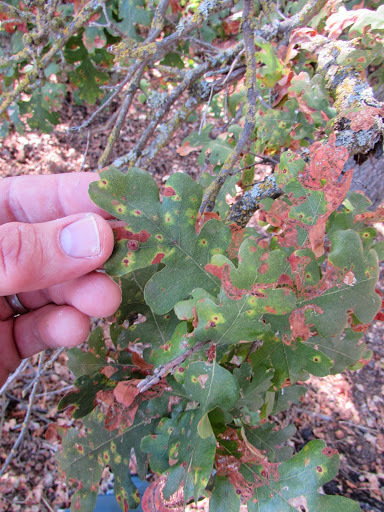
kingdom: Plantae
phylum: Tracheophyta
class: Magnoliopsida
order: Fagales
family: Fagaceae
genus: Quercus
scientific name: Quercus lobata
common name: Valley oak
